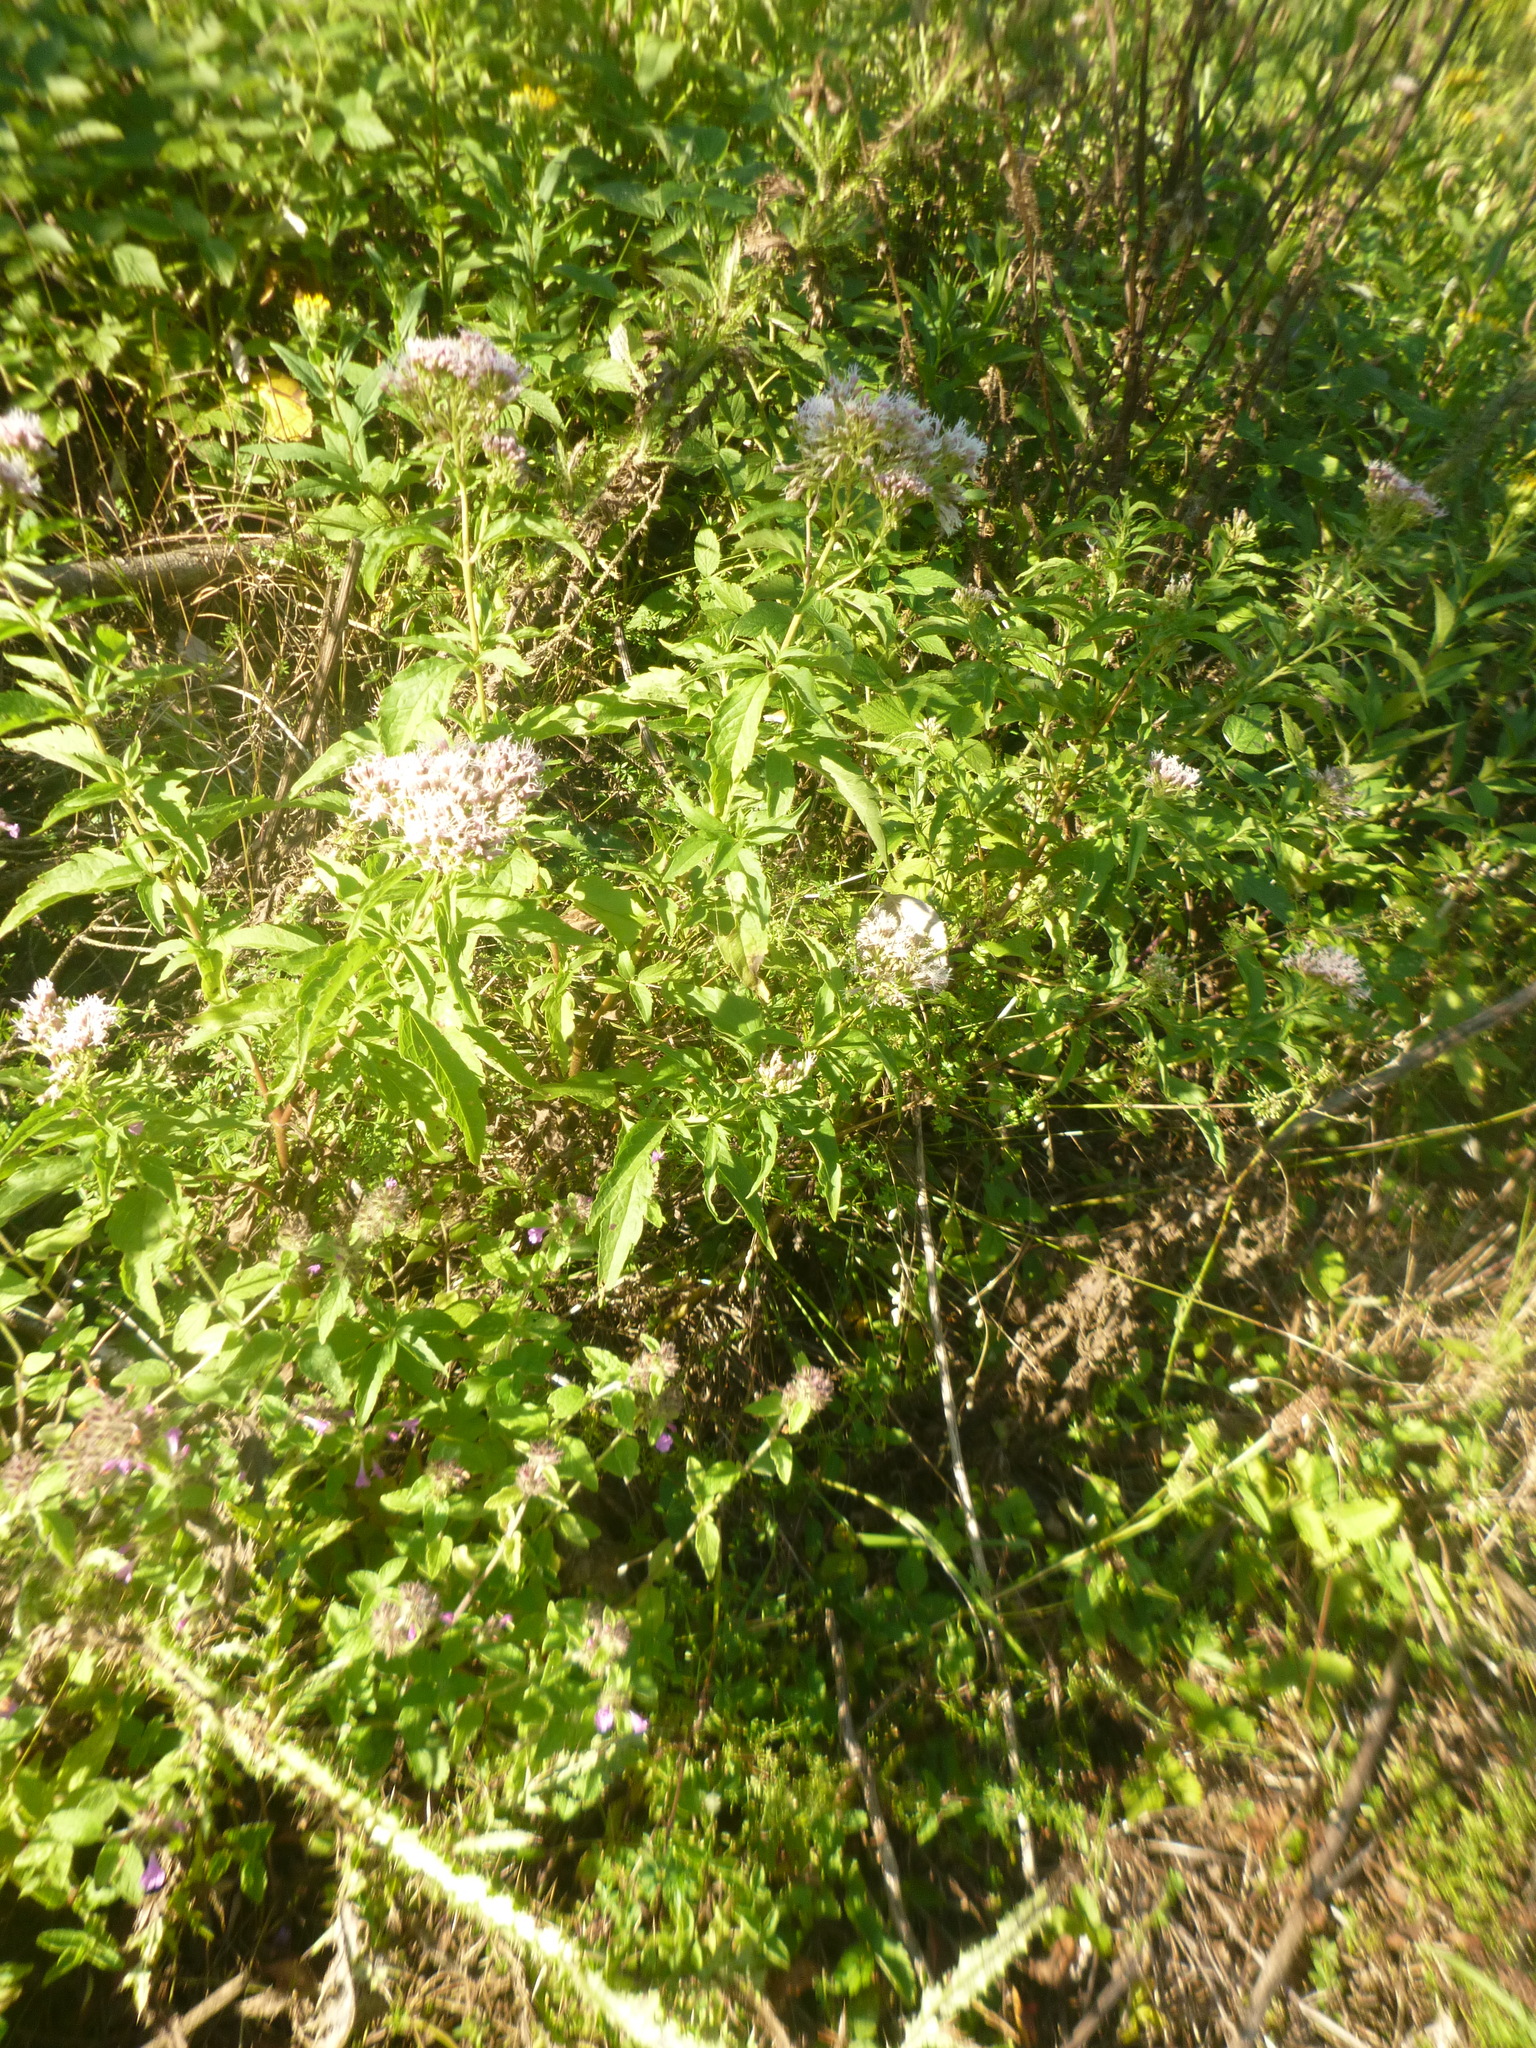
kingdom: Plantae
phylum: Tracheophyta
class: Magnoliopsida
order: Asterales
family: Asteraceae
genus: Eupatorium
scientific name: Eupatorium cannabinum
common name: Hemp-agrimony
